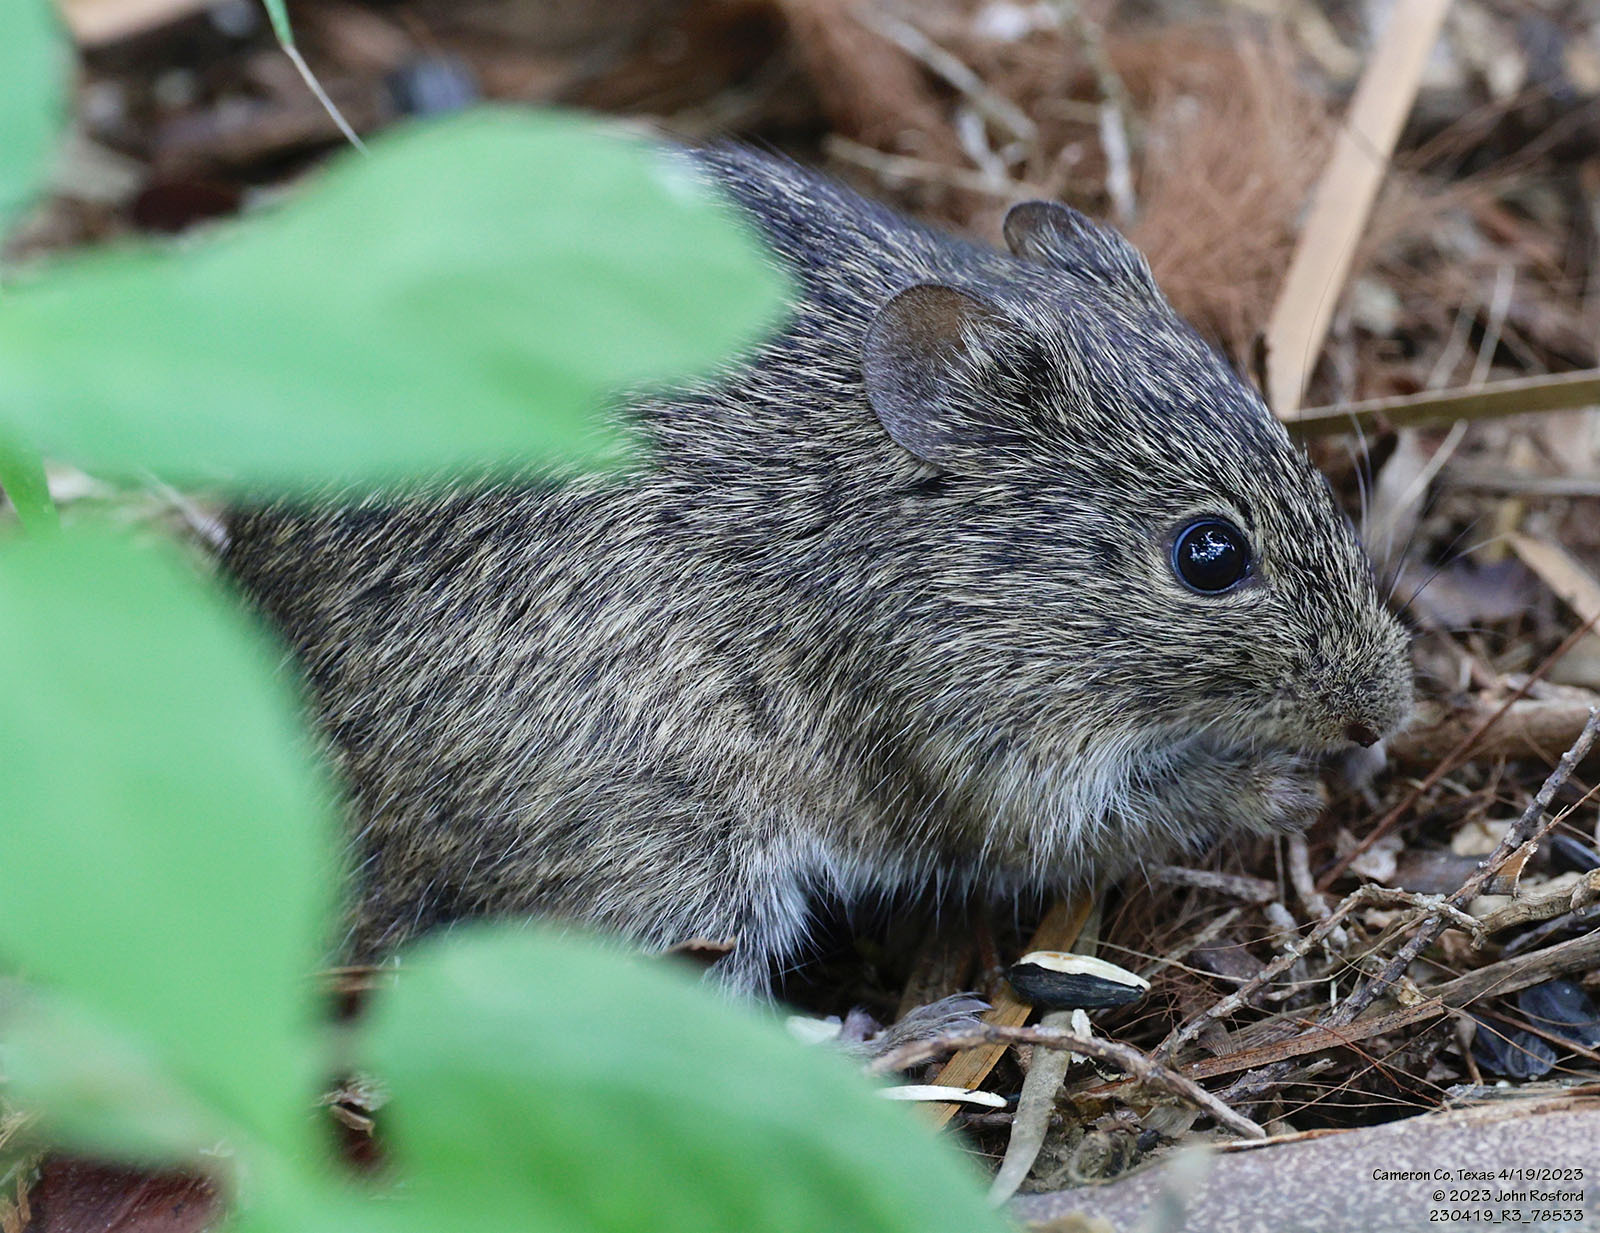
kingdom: Animalia
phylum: Chordata
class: Mammalia
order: Rodentia
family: Cricetidae
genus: Sigmodon
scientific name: Sigmodon hispidus
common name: Hispid cotton rat
